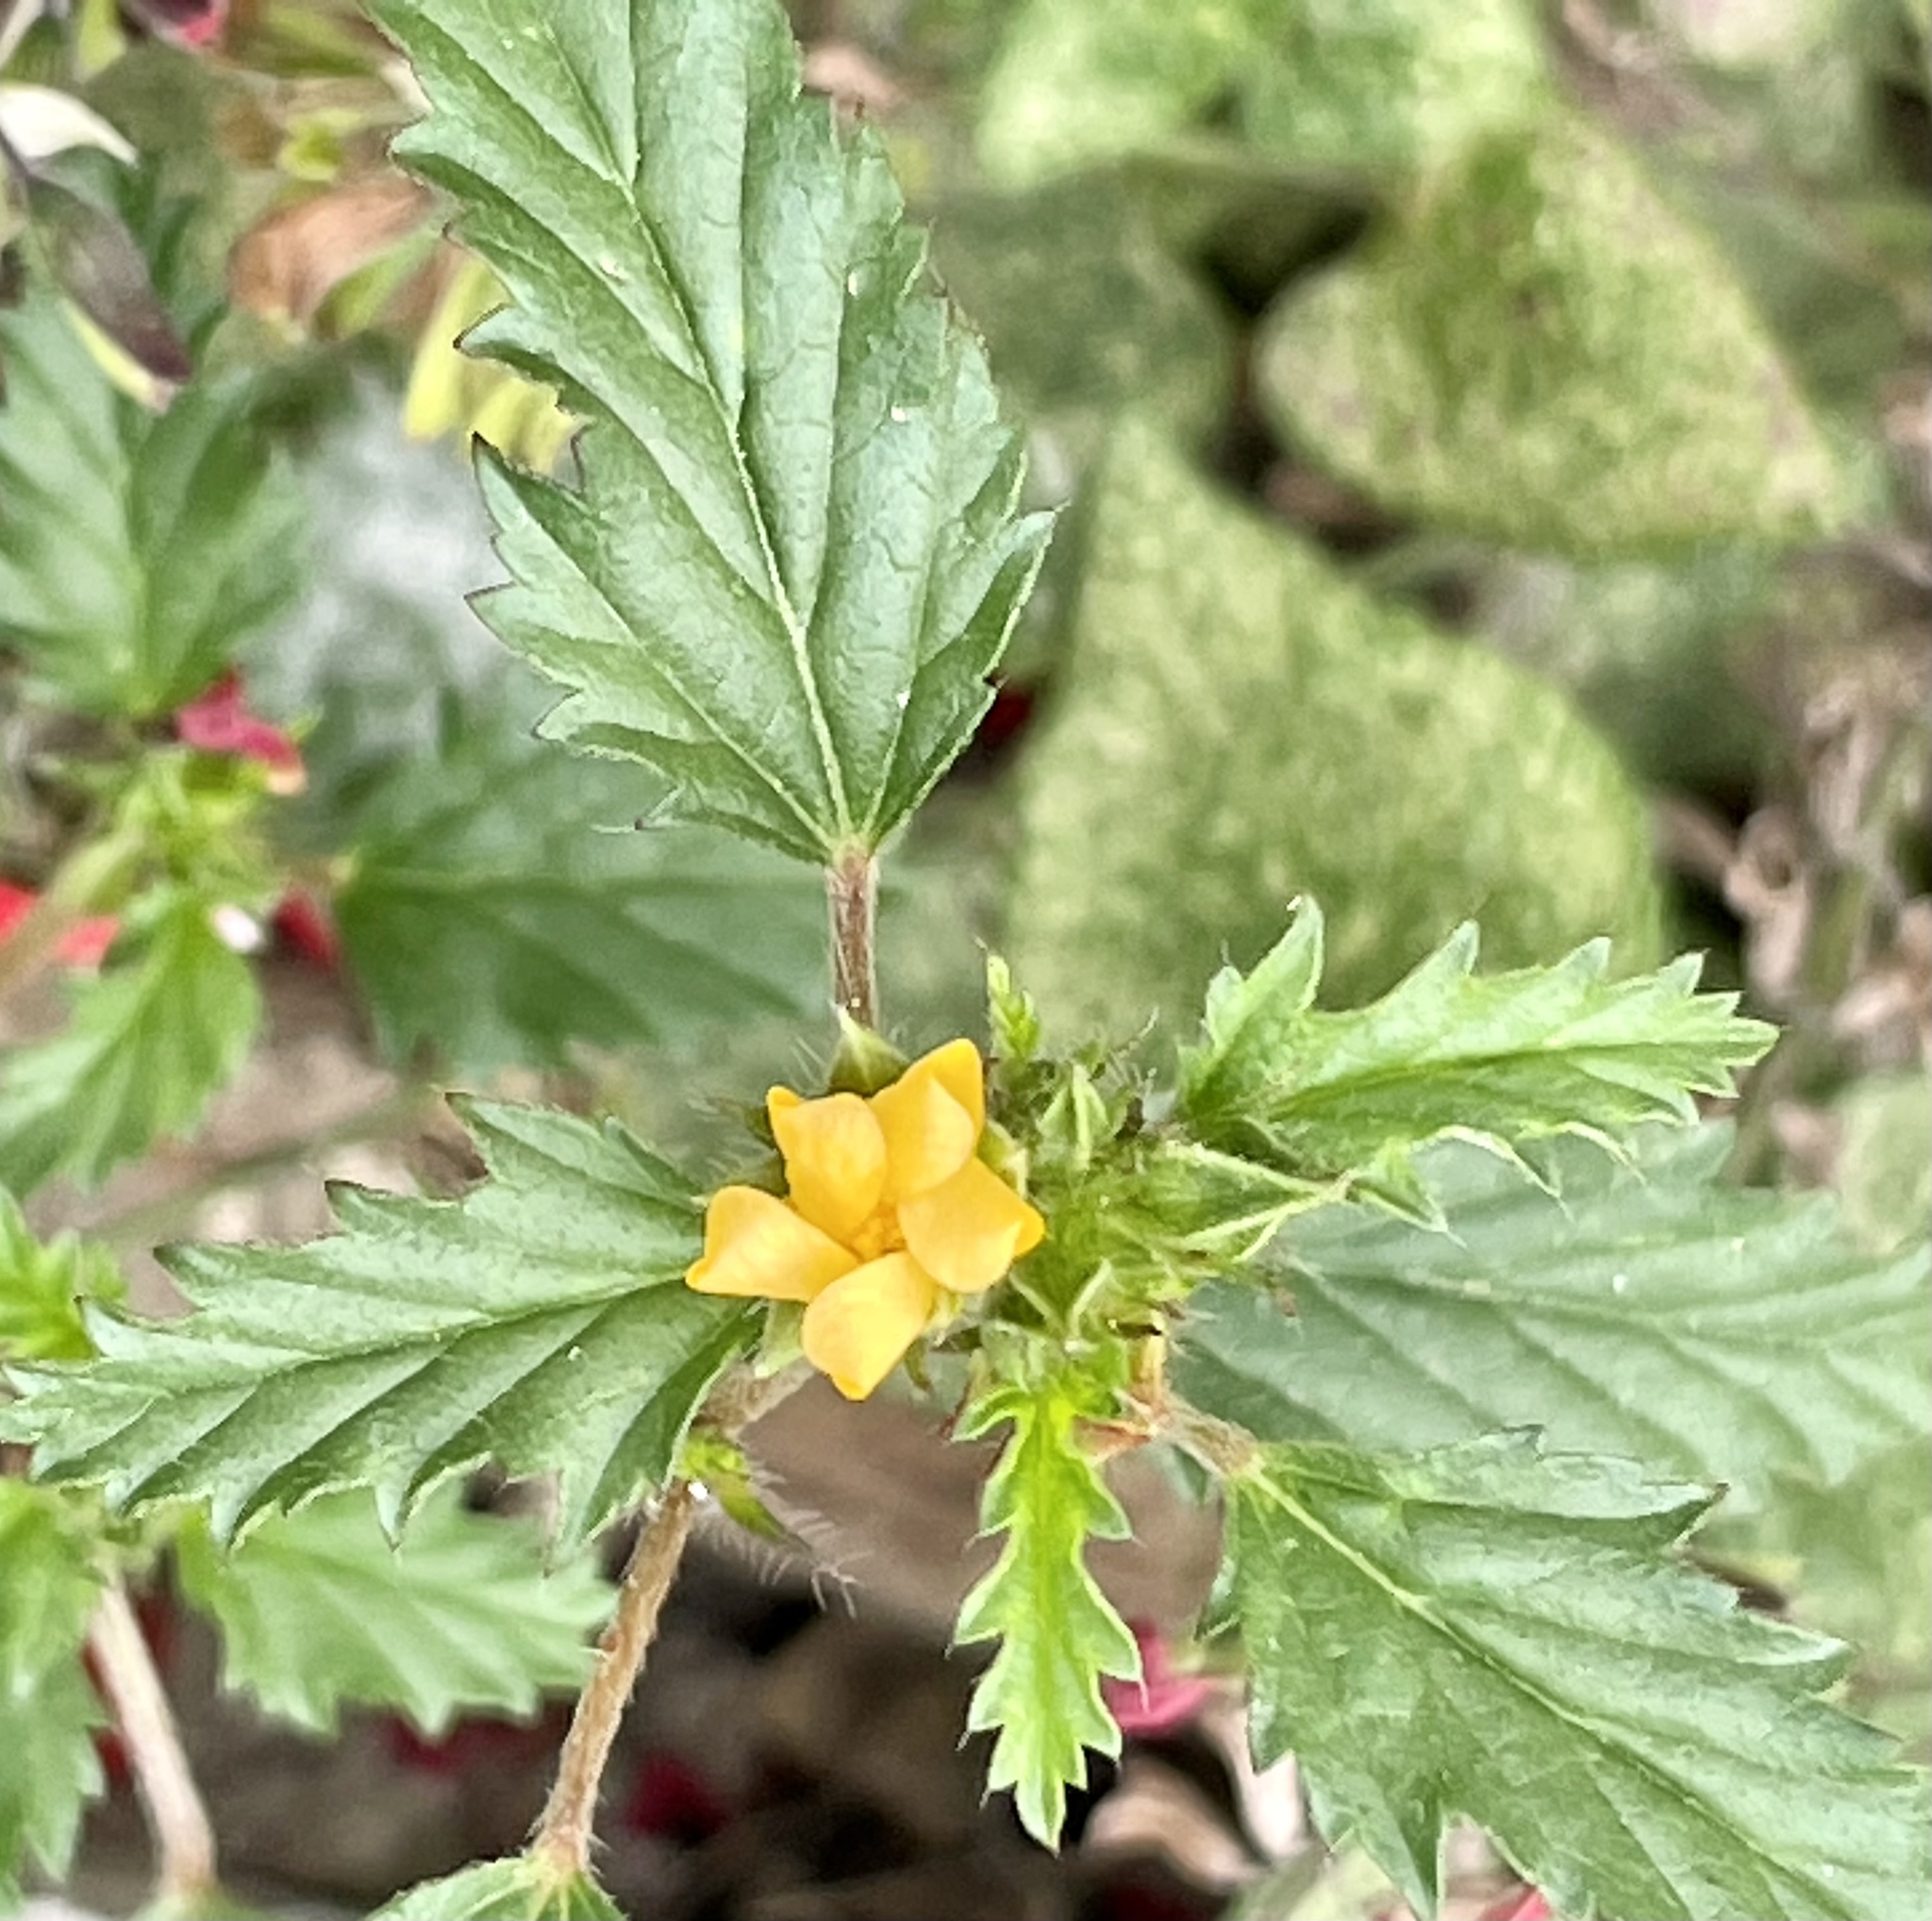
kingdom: Plantae
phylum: Tracheophyta
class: Magnoliopsida
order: Malvales
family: Malvaceae
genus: Malvastrum
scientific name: Malvastrum coromandelianum
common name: Threelobe false mallow
